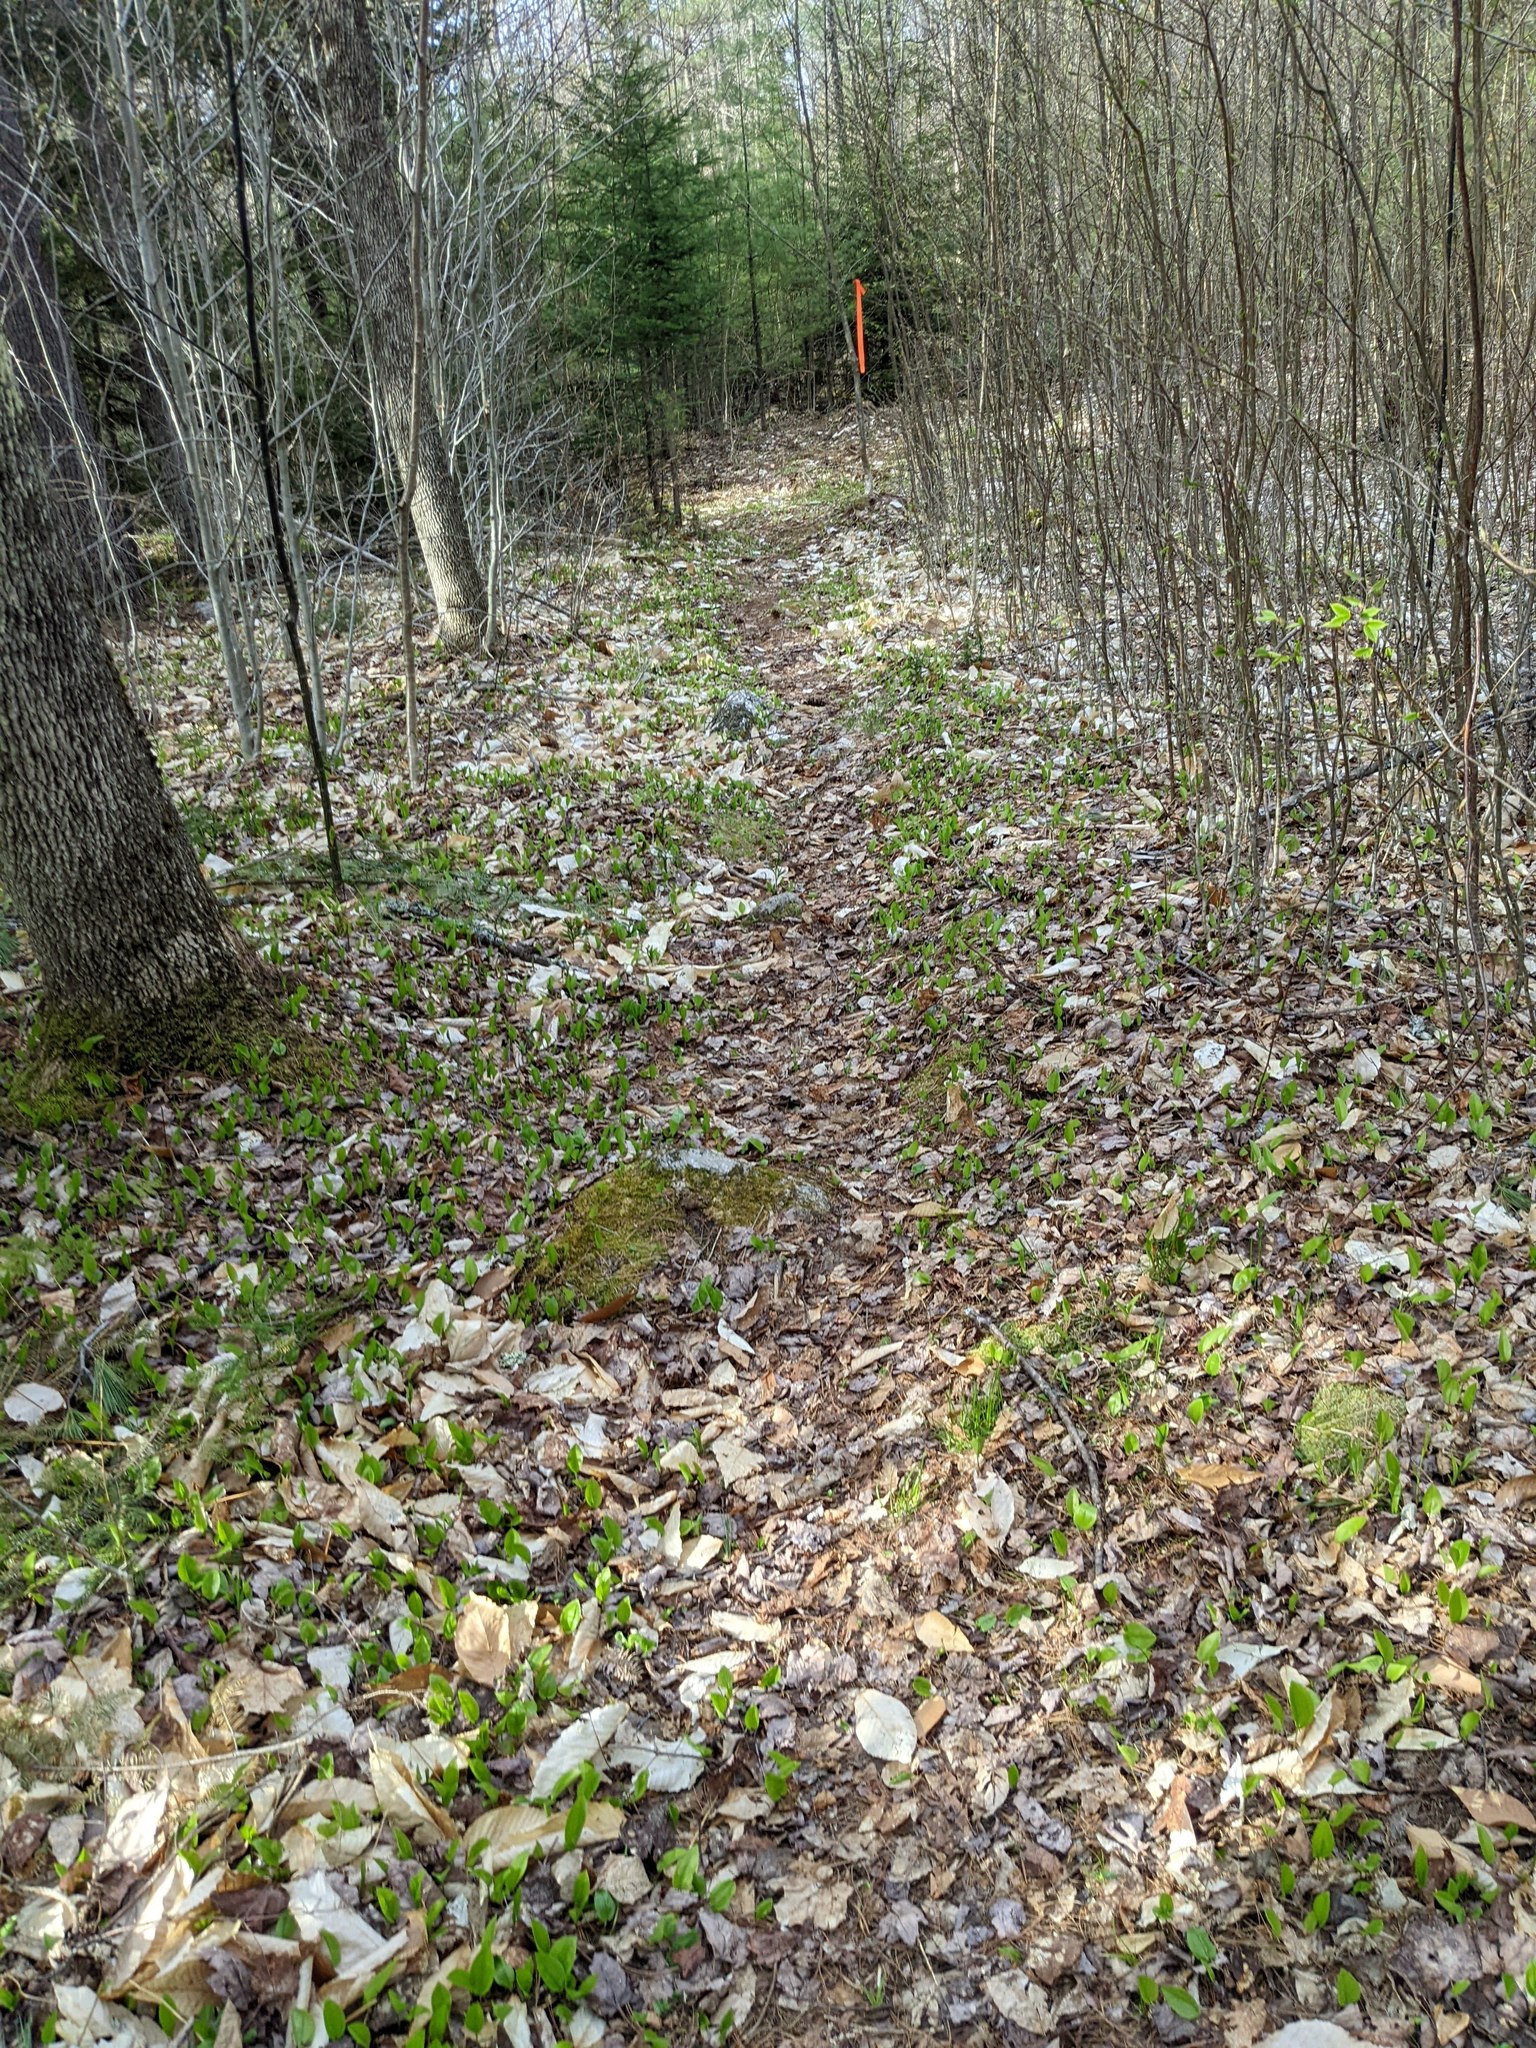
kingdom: Plantae
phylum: Tracheophyta
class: Liliopsida
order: Asparagales
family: Asparagaceae
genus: Maianthemum
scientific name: Maianthemum canadense
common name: False lily-of-the-valley
